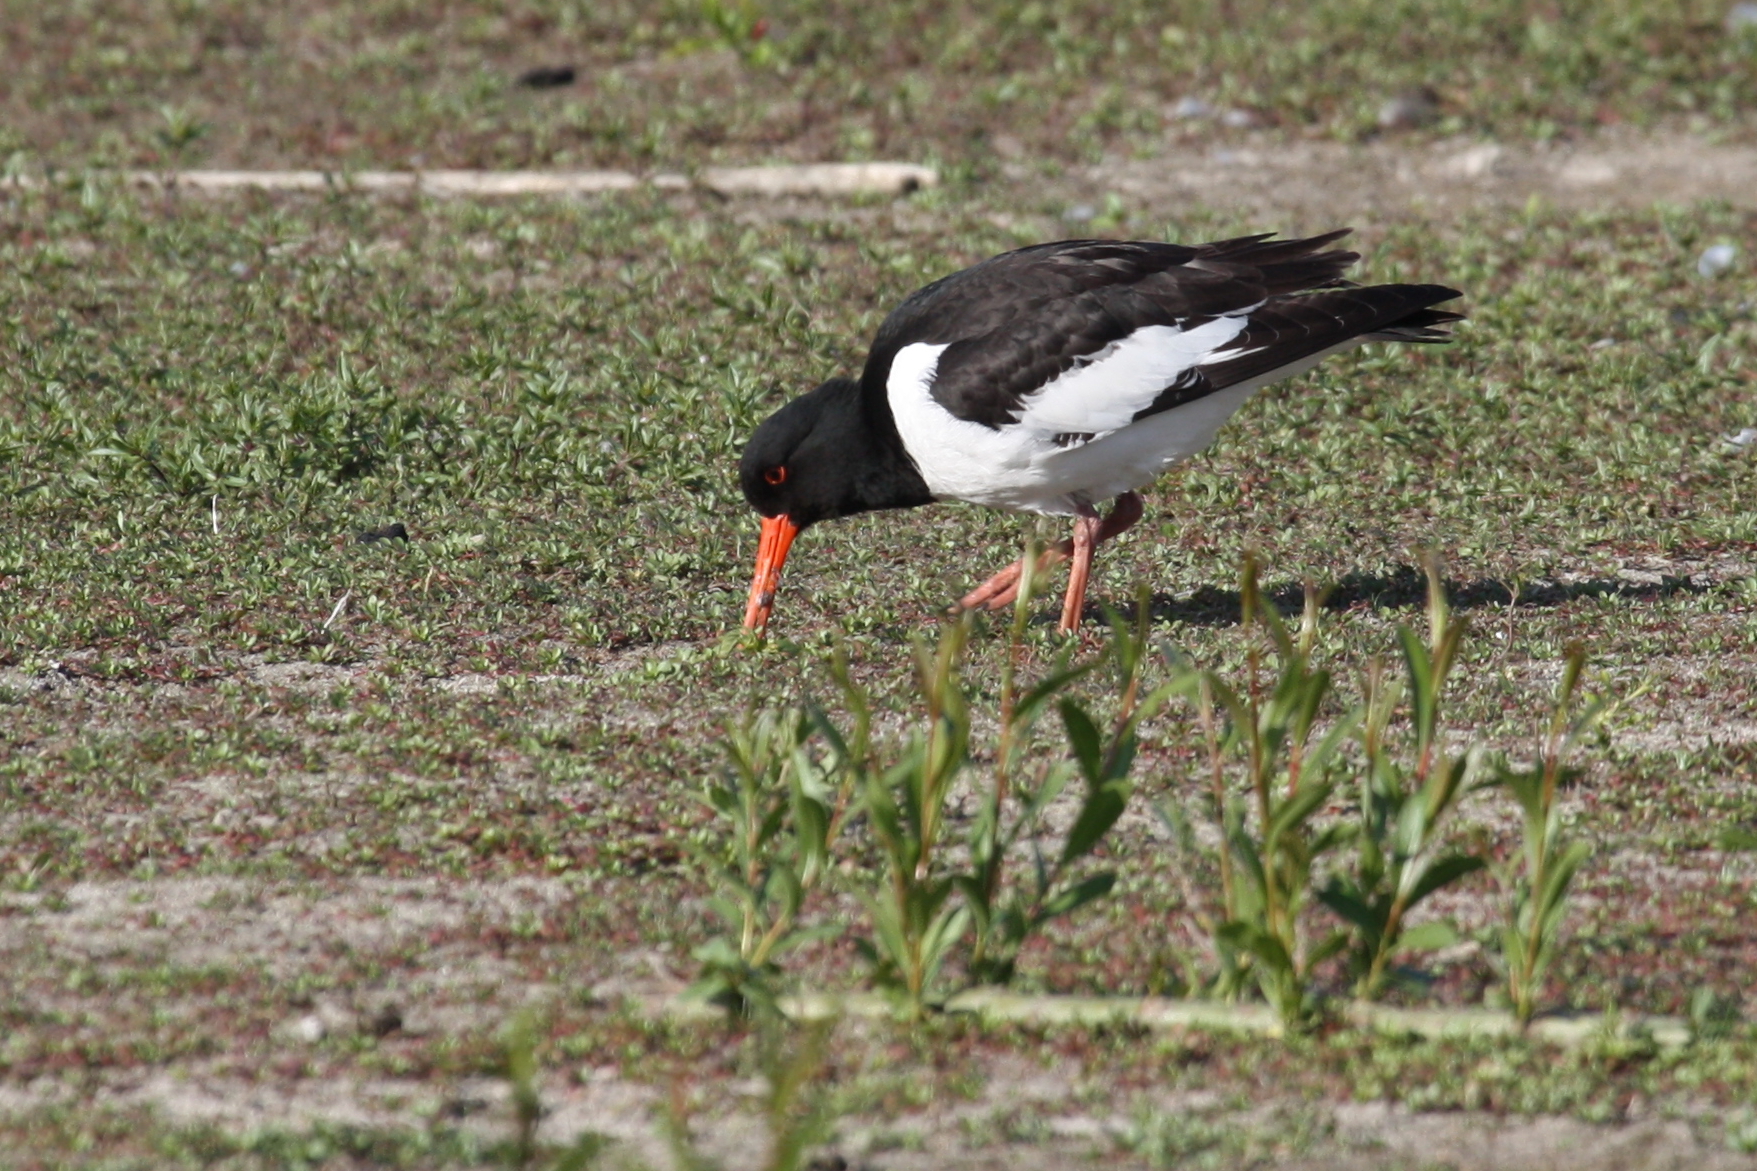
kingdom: Animalia
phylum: Chordata
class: Aves
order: Charadriiformes
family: Haematopodidae
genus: Haematopus
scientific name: Haematopus ostralegus
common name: Eurasian oystercatcher
